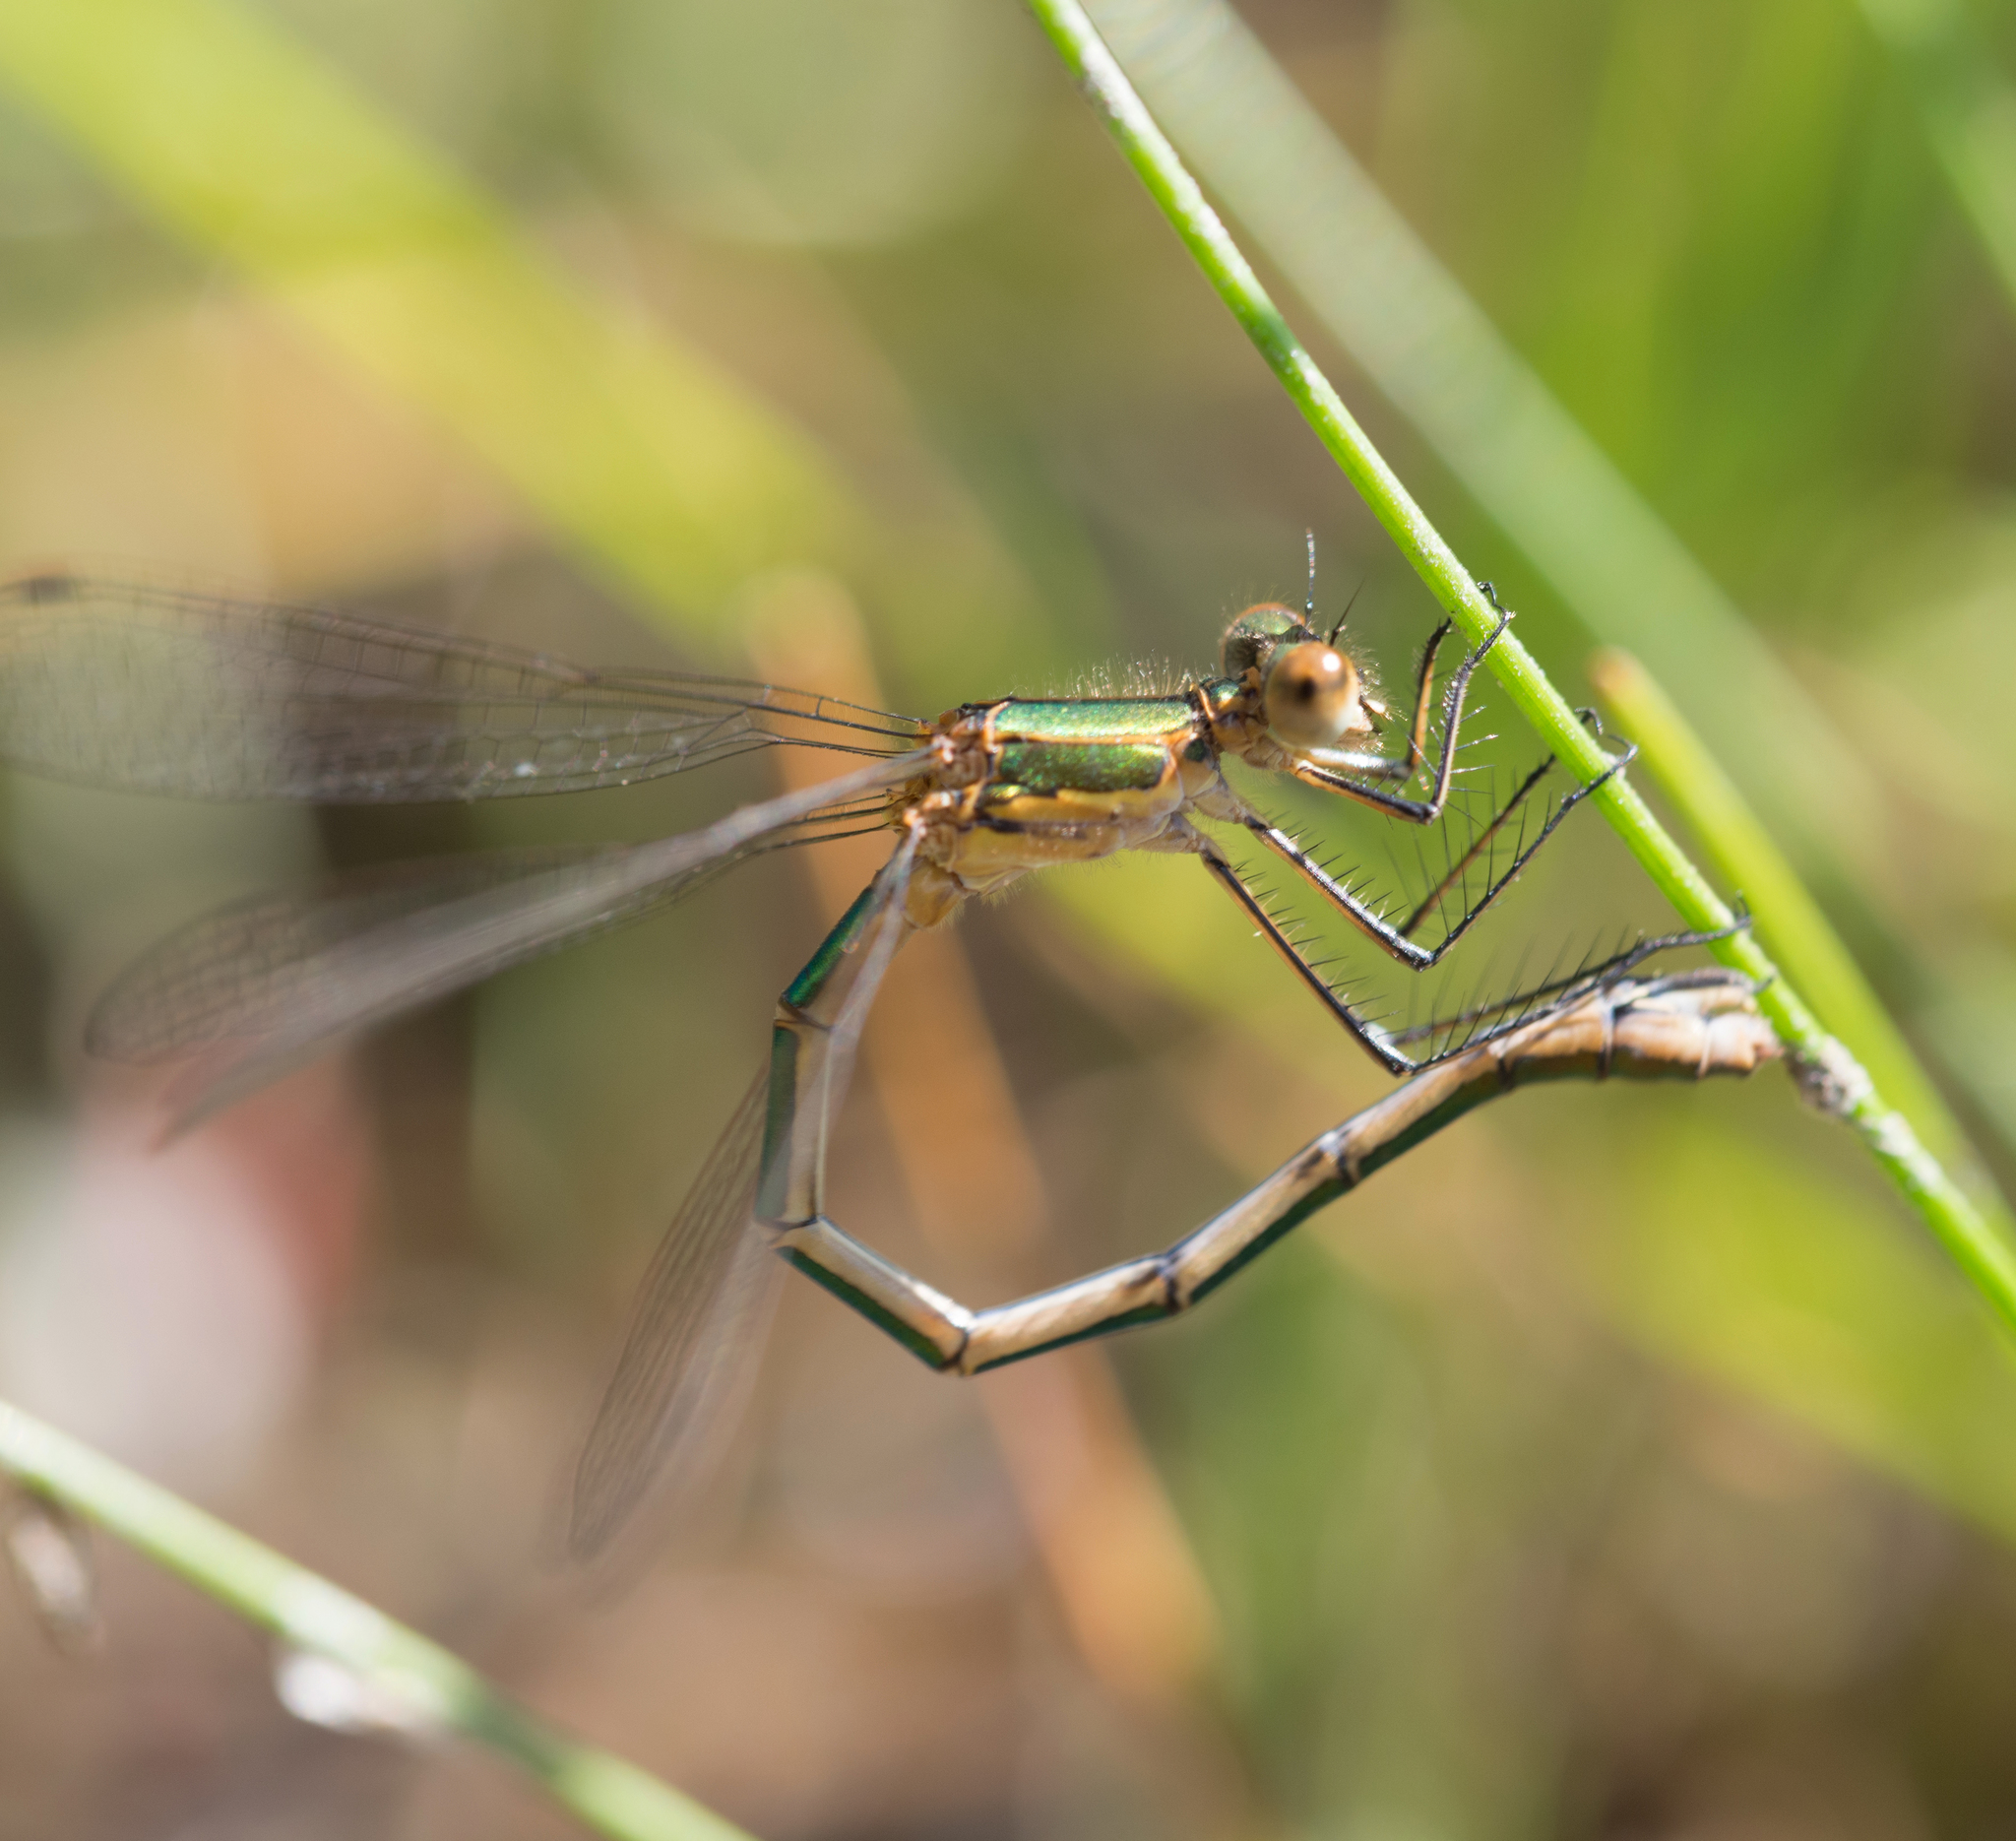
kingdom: Animalia
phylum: Arthropoda
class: Insecta
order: Odonata
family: Lestidae
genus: Lestes
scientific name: Lestes sponsa
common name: Common spreadwing
